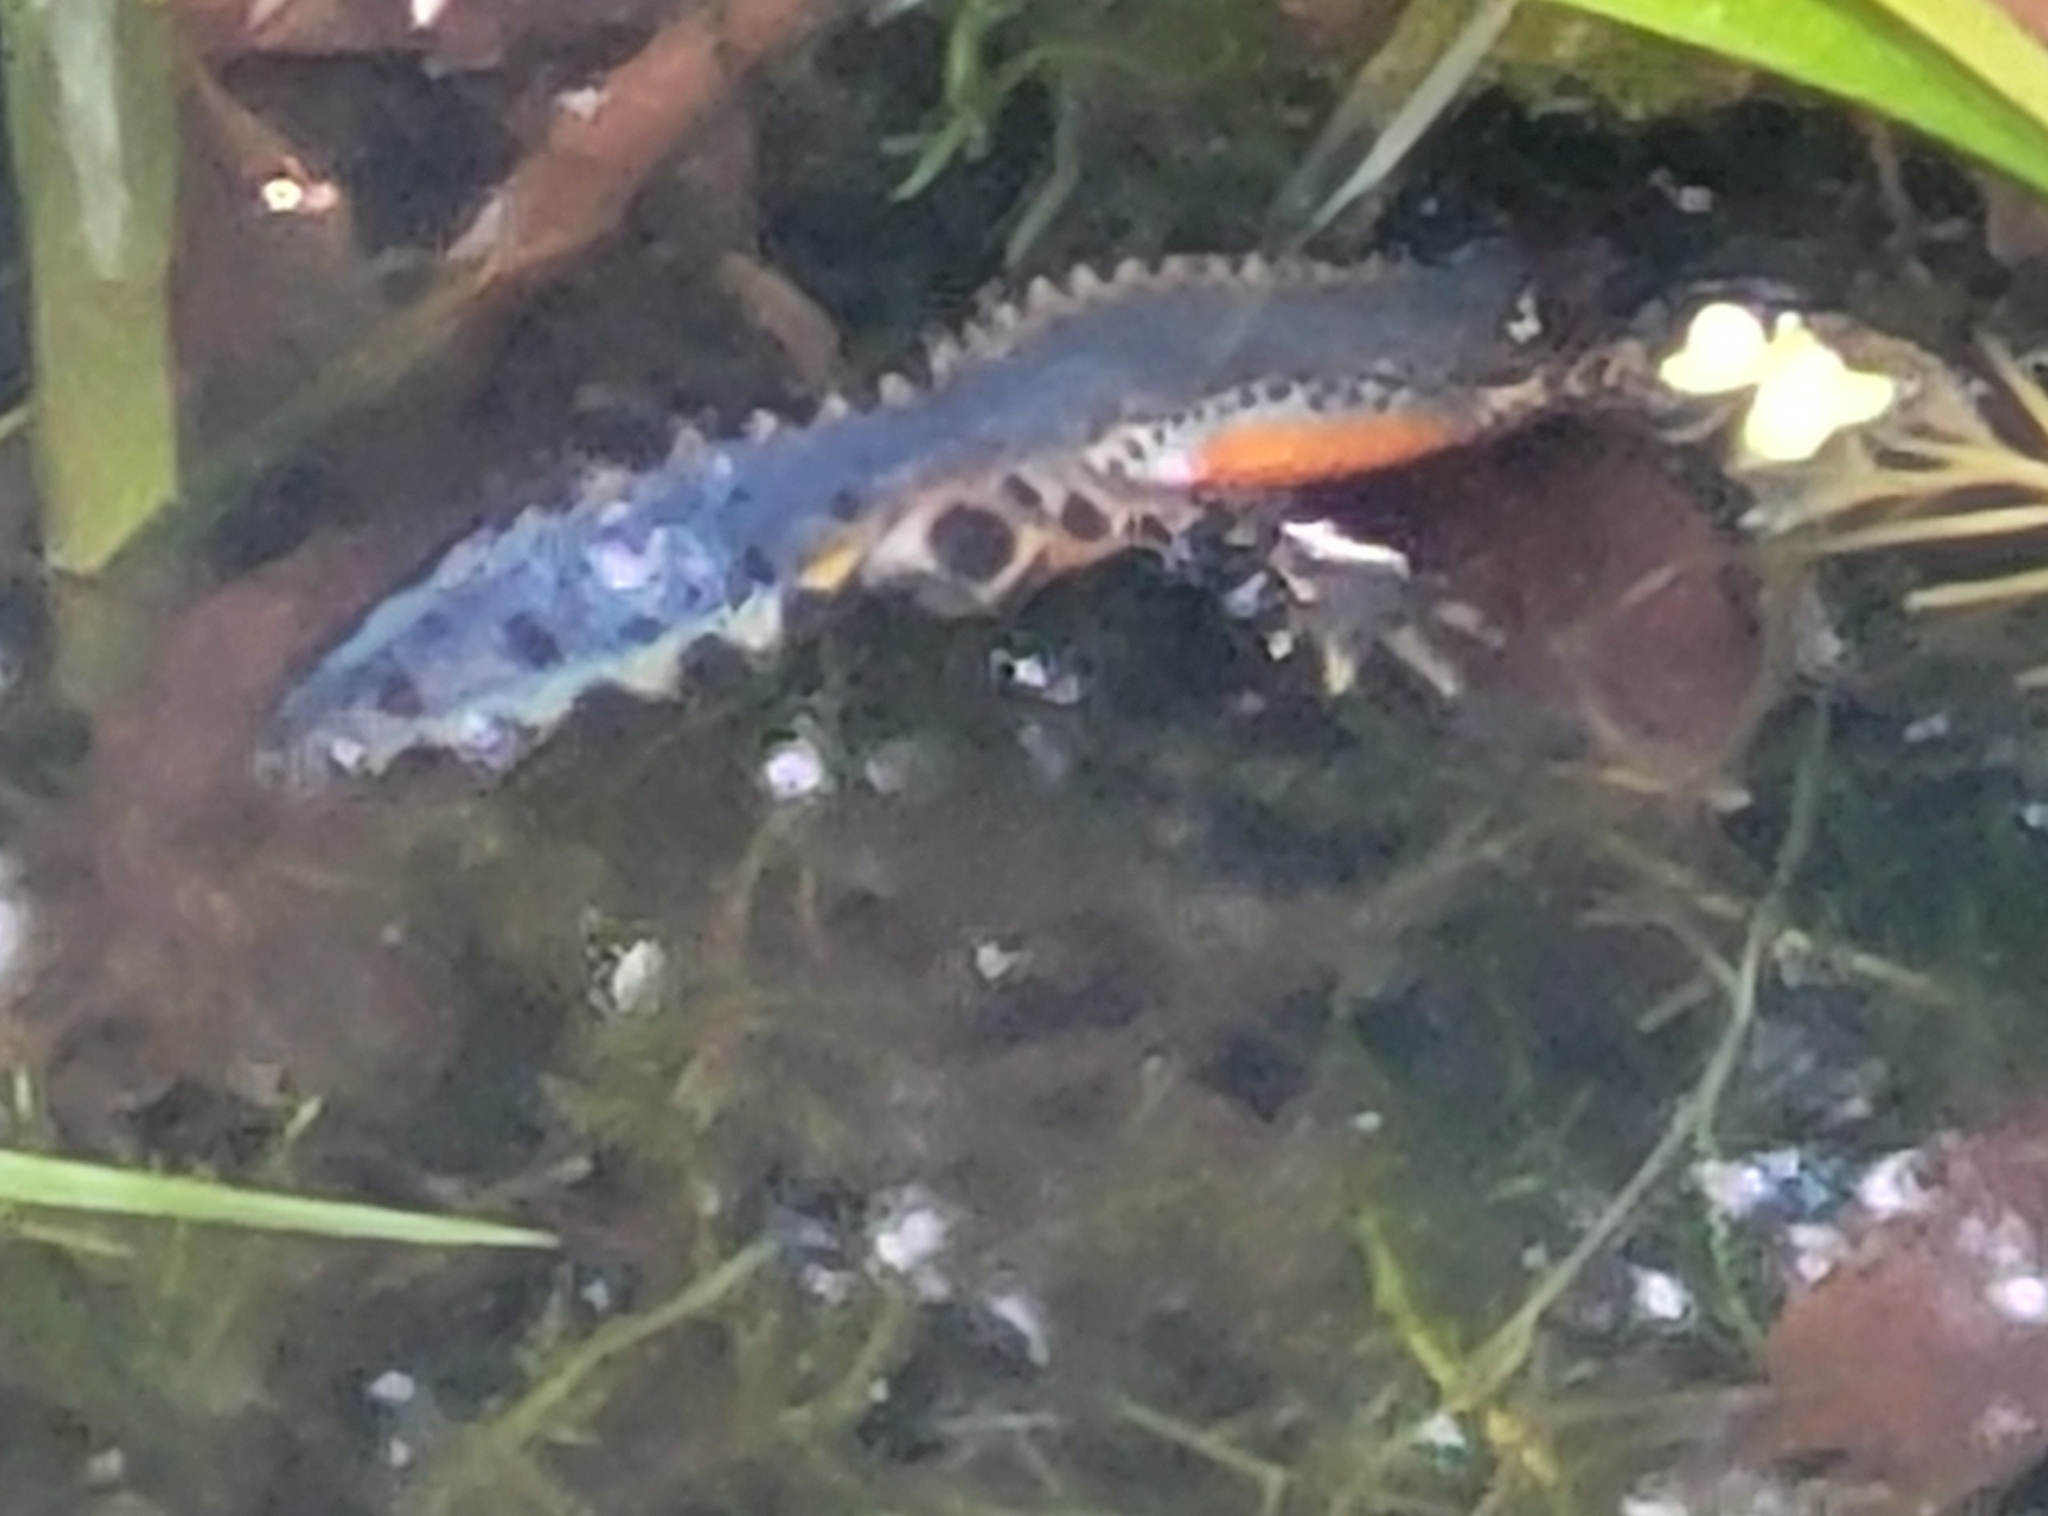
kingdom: Animalia
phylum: Chordata
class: Amphibia
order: Caudata
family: Salamandridae
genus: Ichthyosaura
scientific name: Ichthyosaura alpestris
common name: Alpine newt
